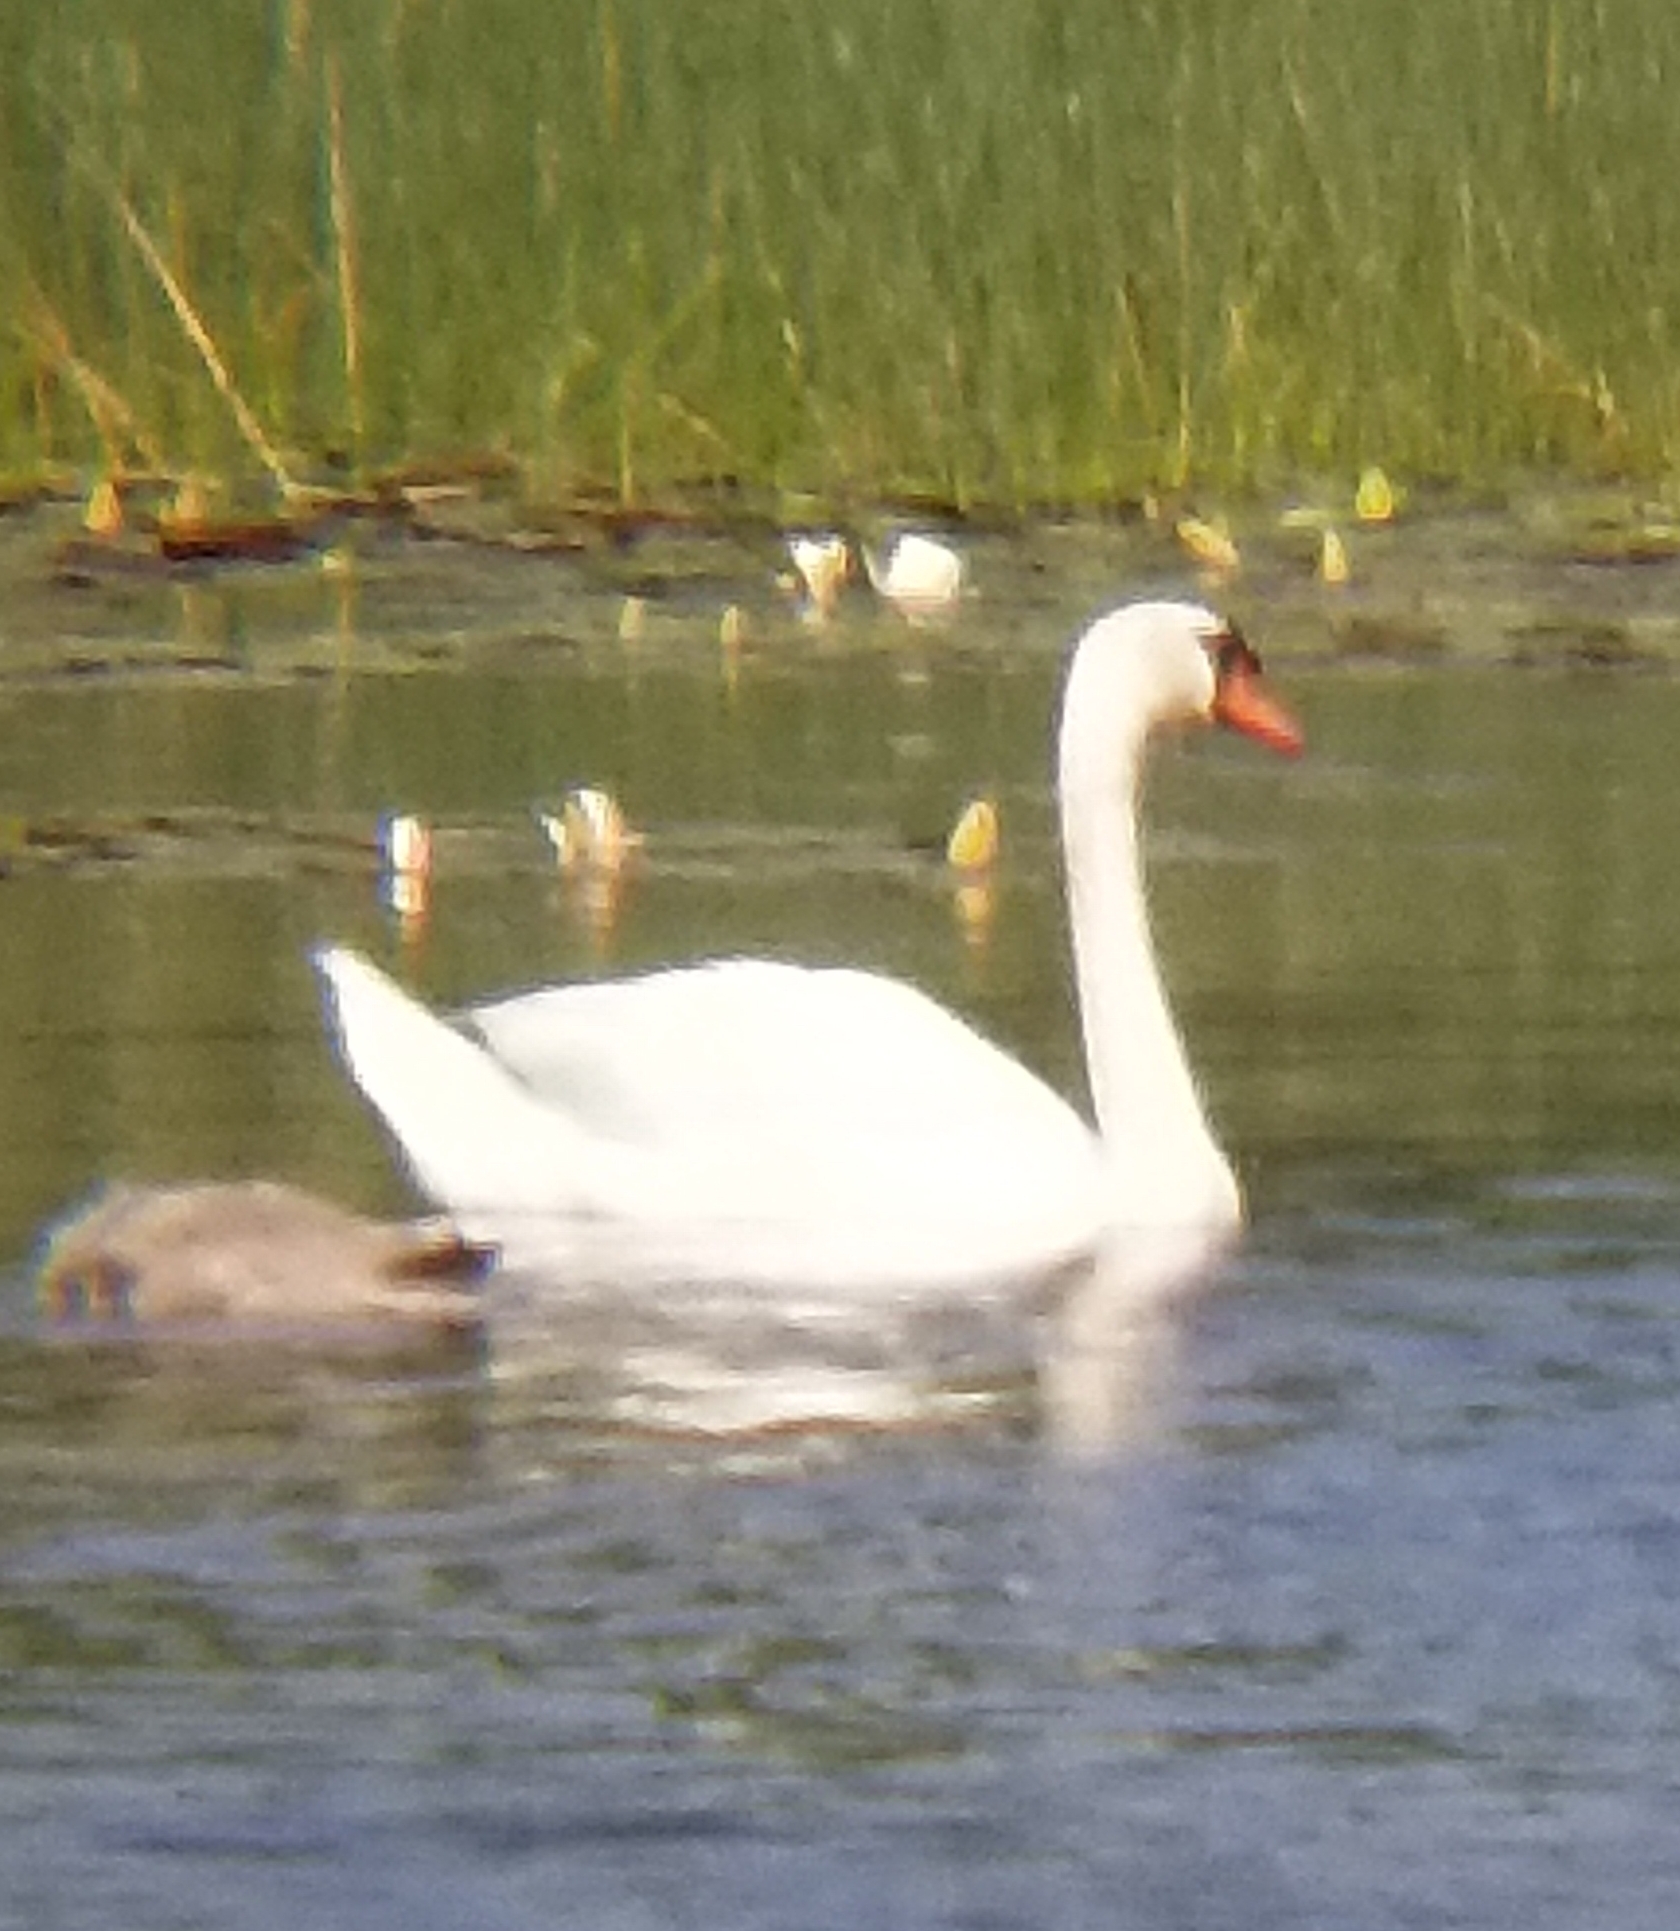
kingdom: Animalia
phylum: Chordata
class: Aves
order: Anseriformes
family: Anatidae
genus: Cygnus
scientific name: Cygnus olor
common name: Mute swan
